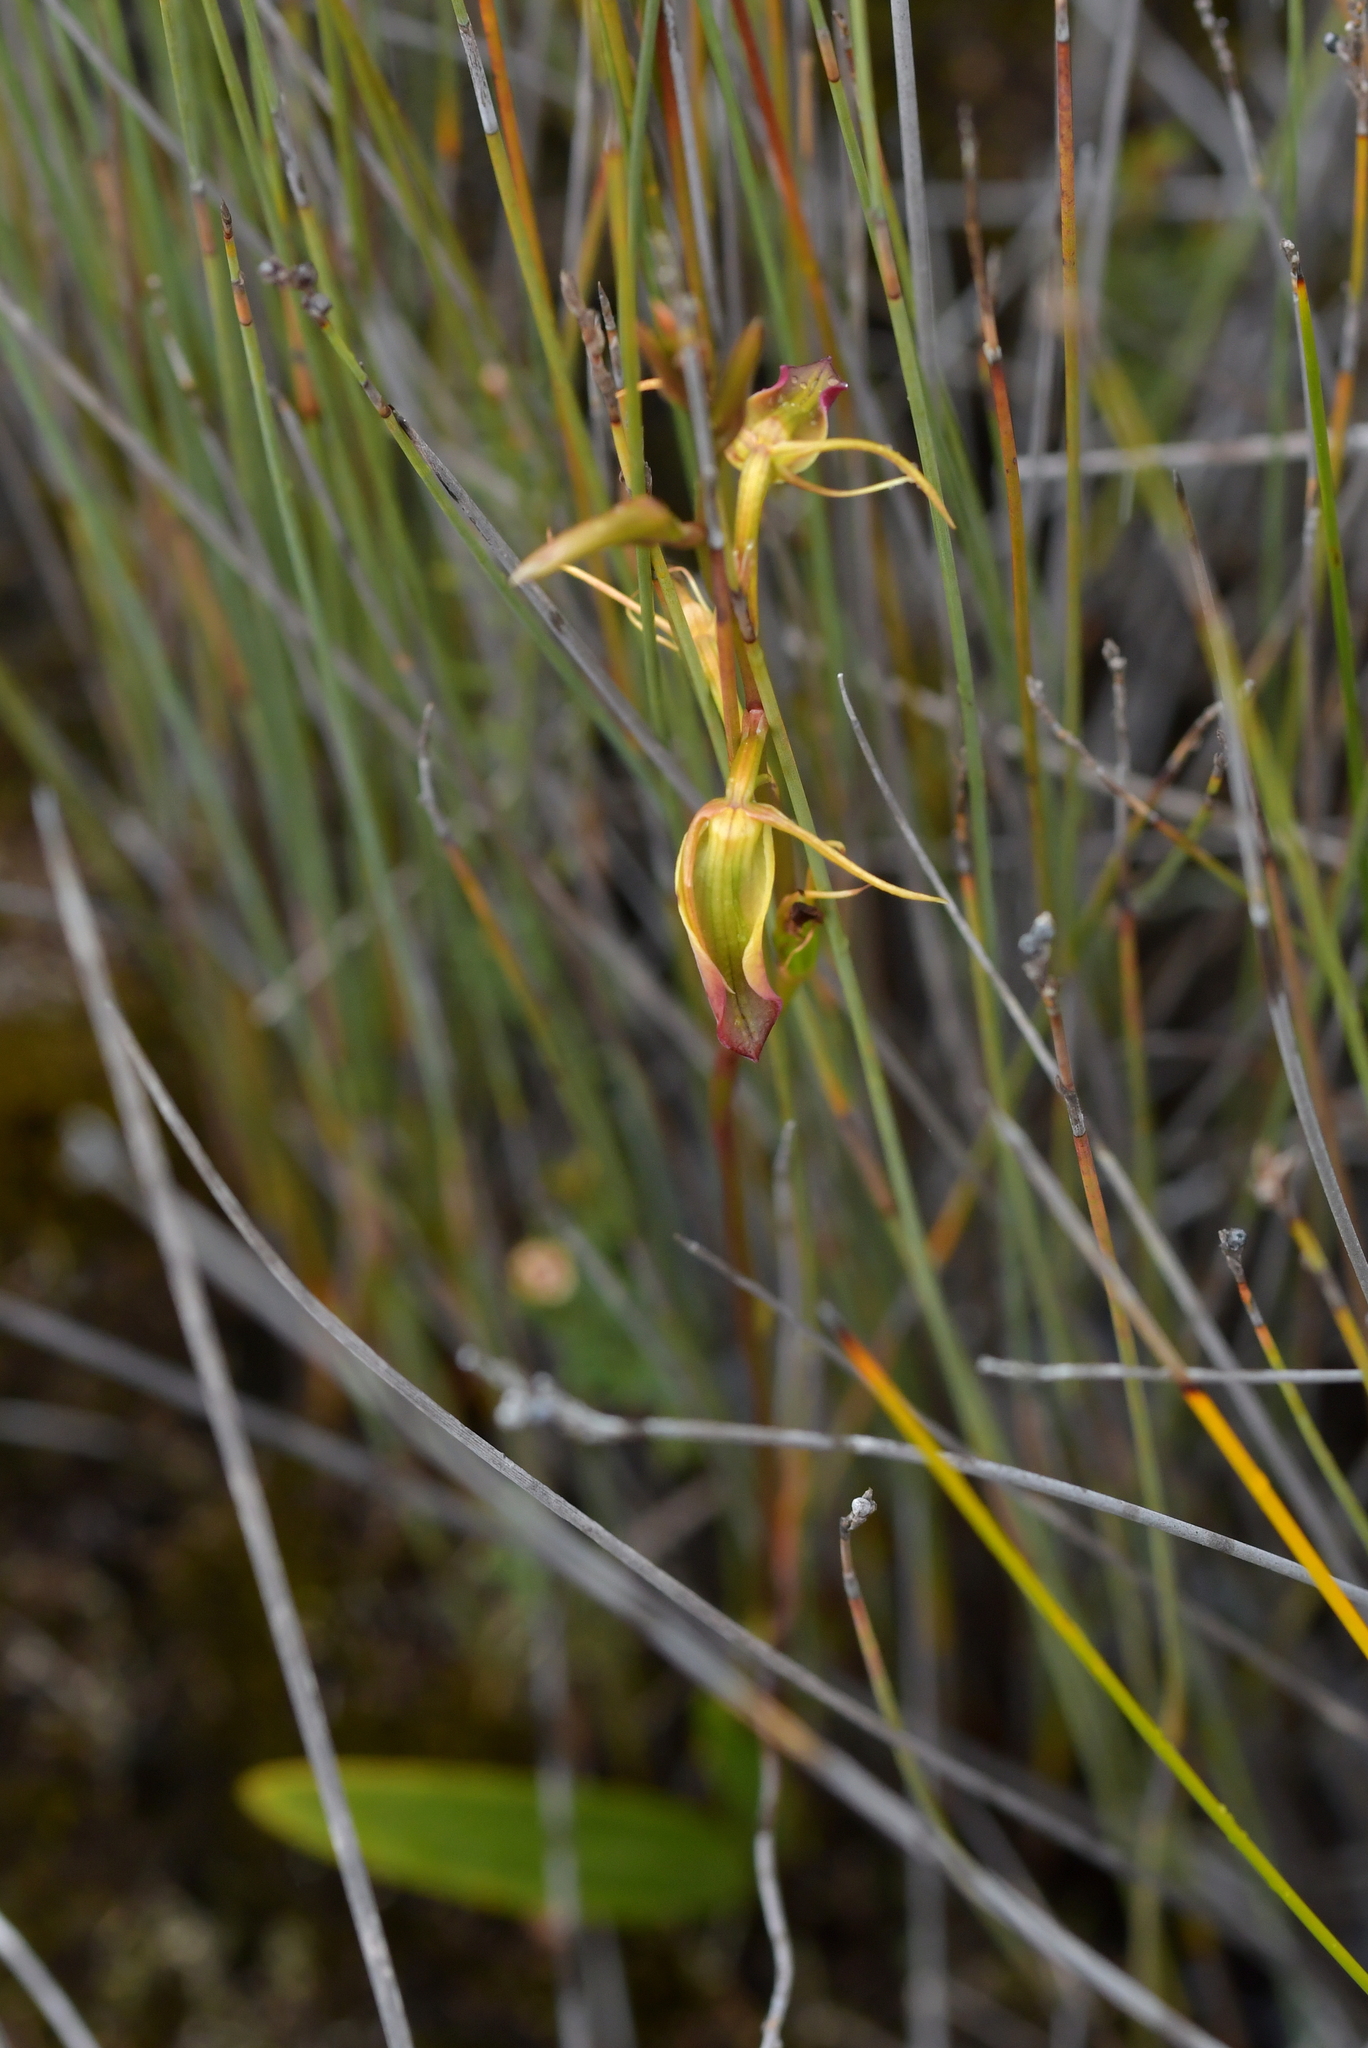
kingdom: Plantae
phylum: Tracheophyta
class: Liliopsida
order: Asparagales
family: Orchidaceae
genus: Cryptostylis
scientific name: Cryptostylis subulata
